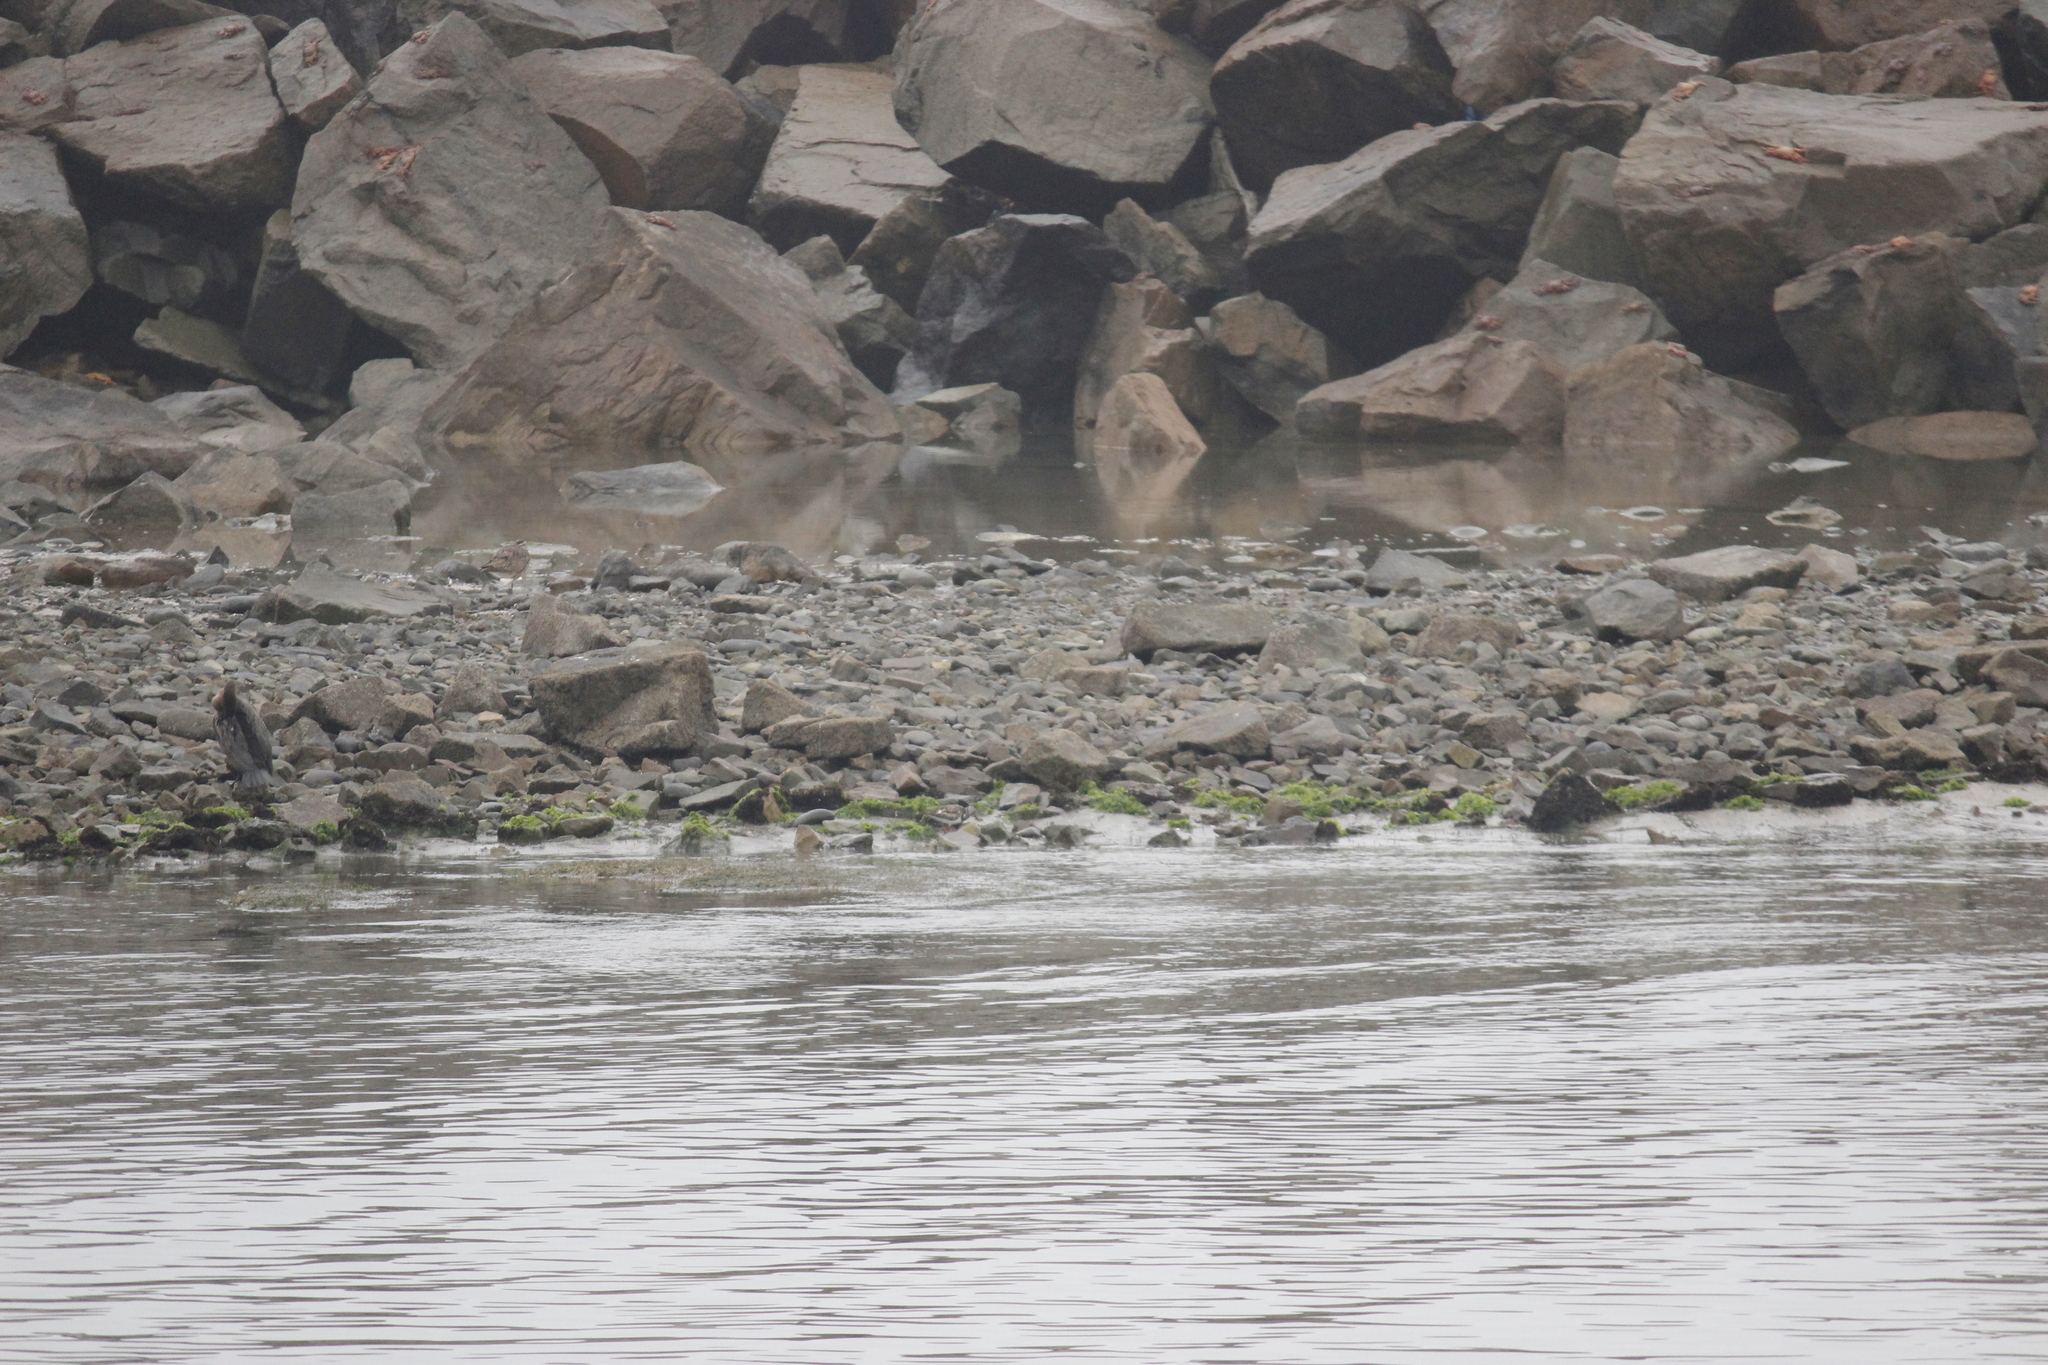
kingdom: Animalia
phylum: Chordata
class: Aves
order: Charadriiformes
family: Scolopacidae
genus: Arenaria
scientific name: Arenaria interpres
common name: Ruddy turnstone
